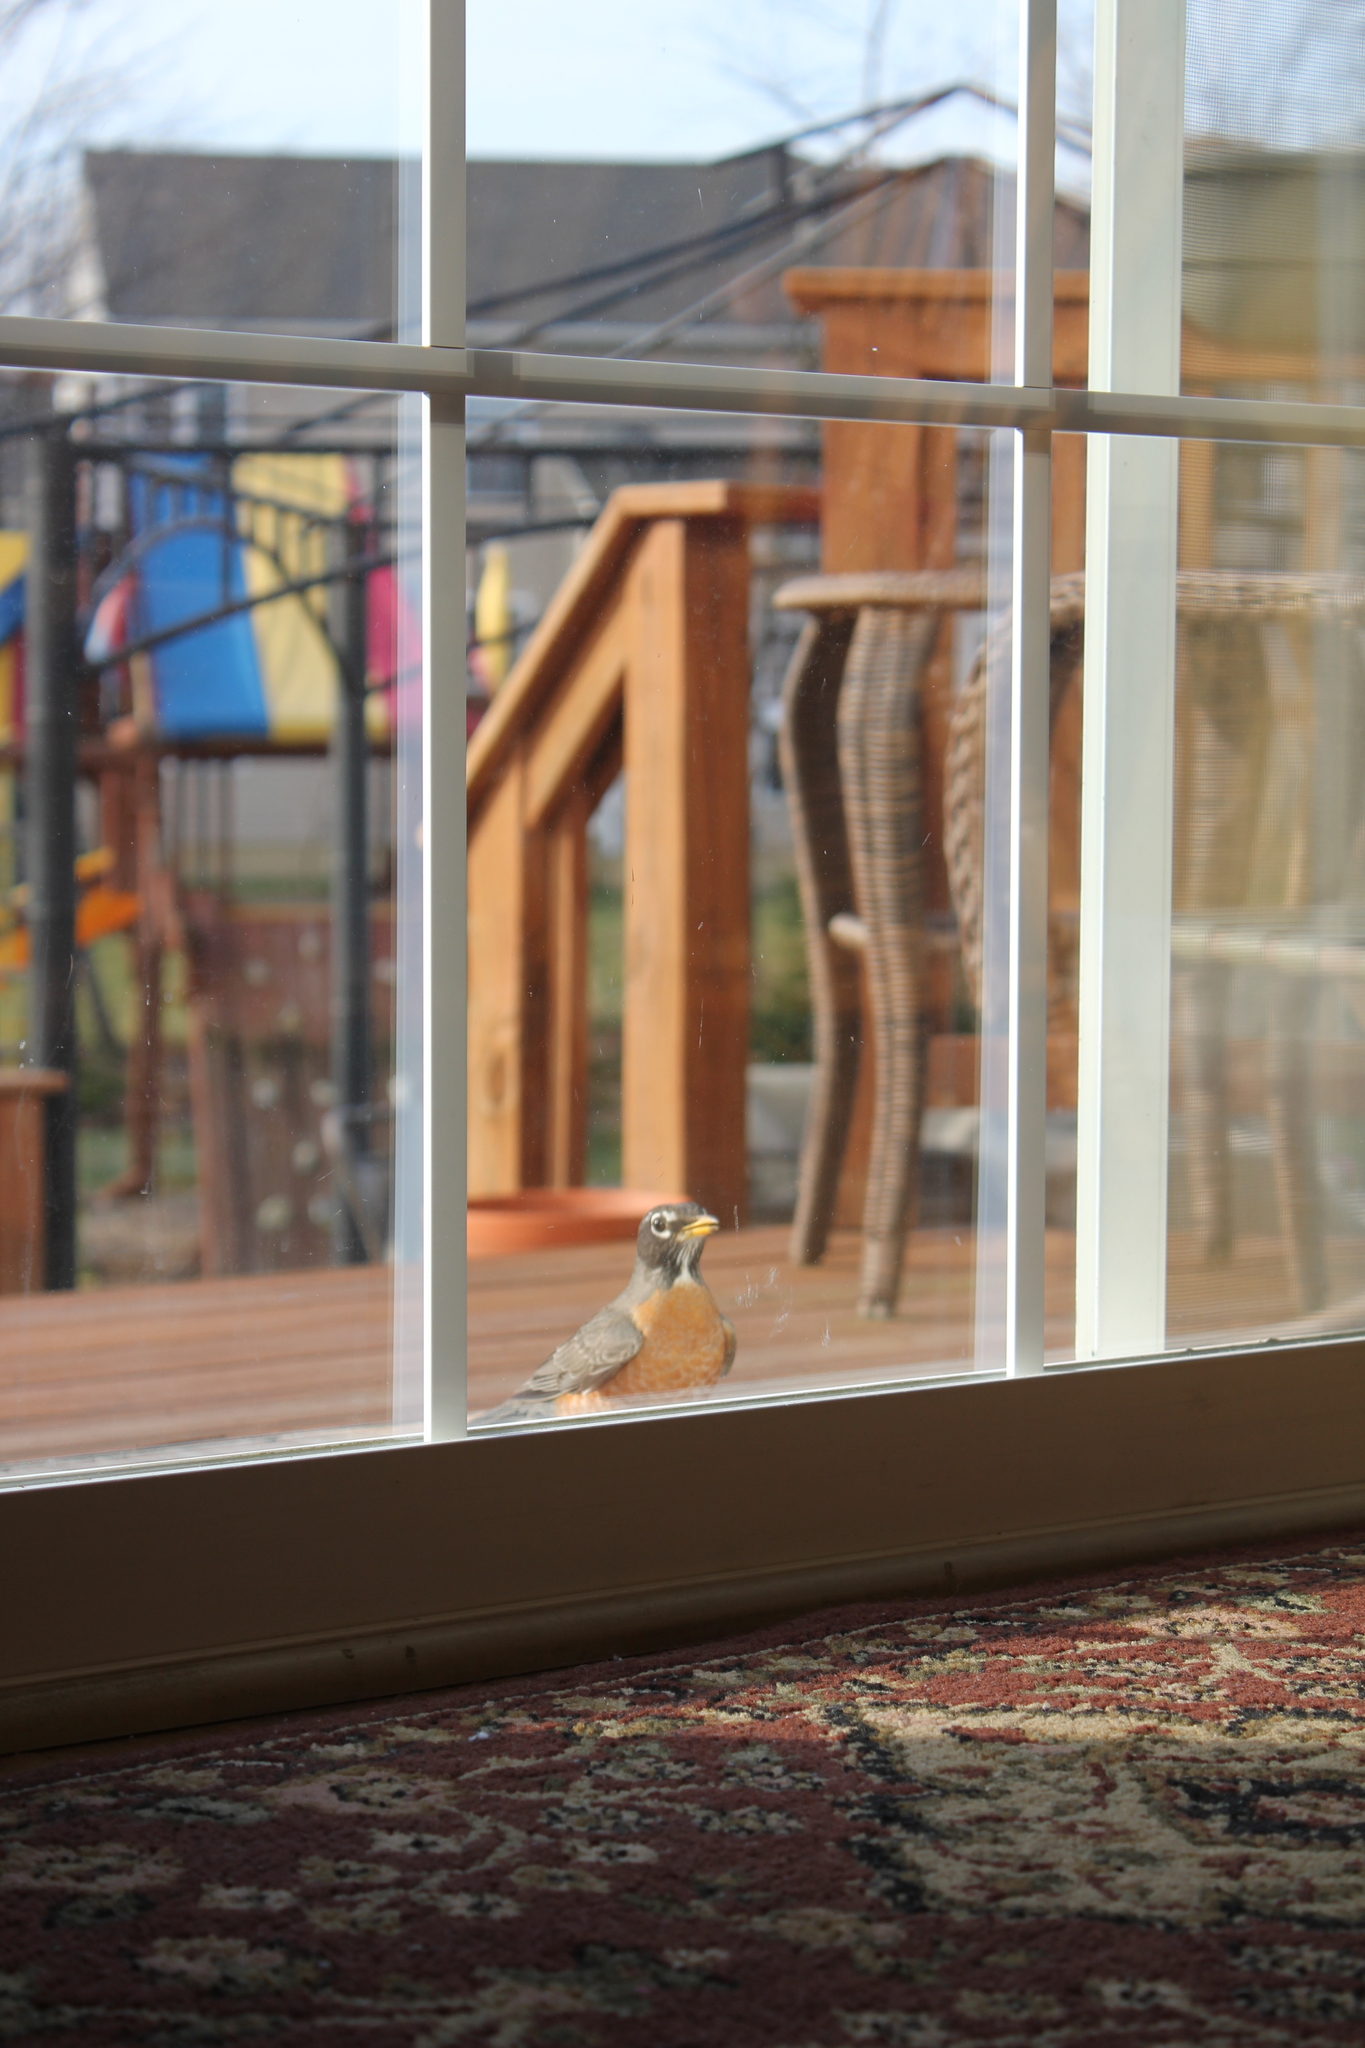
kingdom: Animalia
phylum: Chordata
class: Aves
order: Passeriformes
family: Turdidae
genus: Turdus
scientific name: Turdus migratorius
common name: American robin
